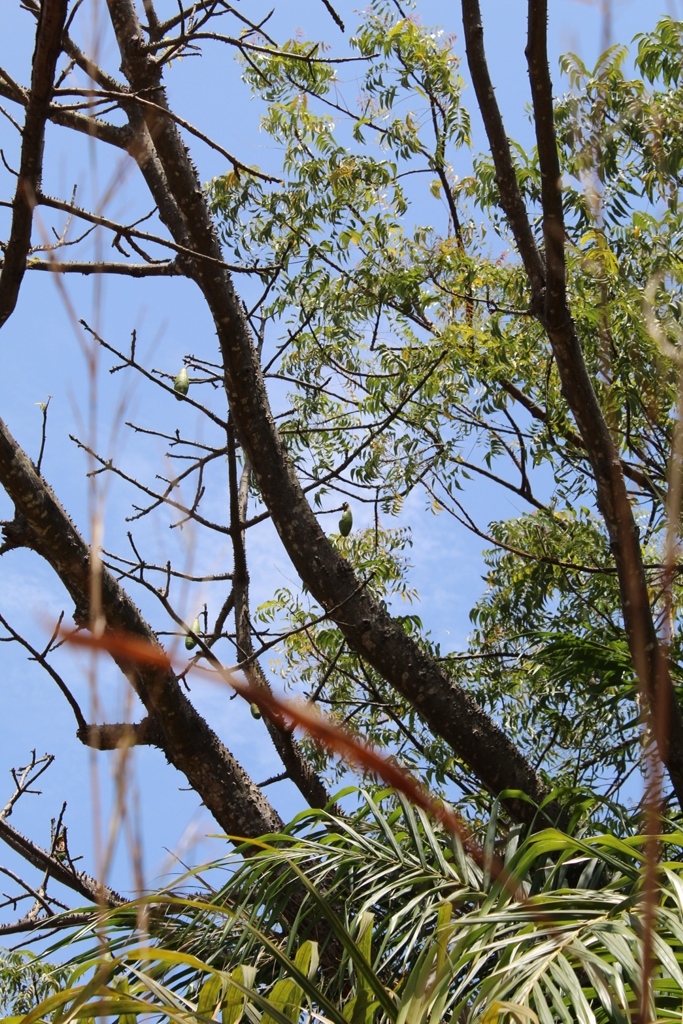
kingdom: Plantae
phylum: Tracheophyta
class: Magnoliopsida
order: Malvales
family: Malvaceae
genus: Ceiba
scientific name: Ceiba pentandra
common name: Kapok
